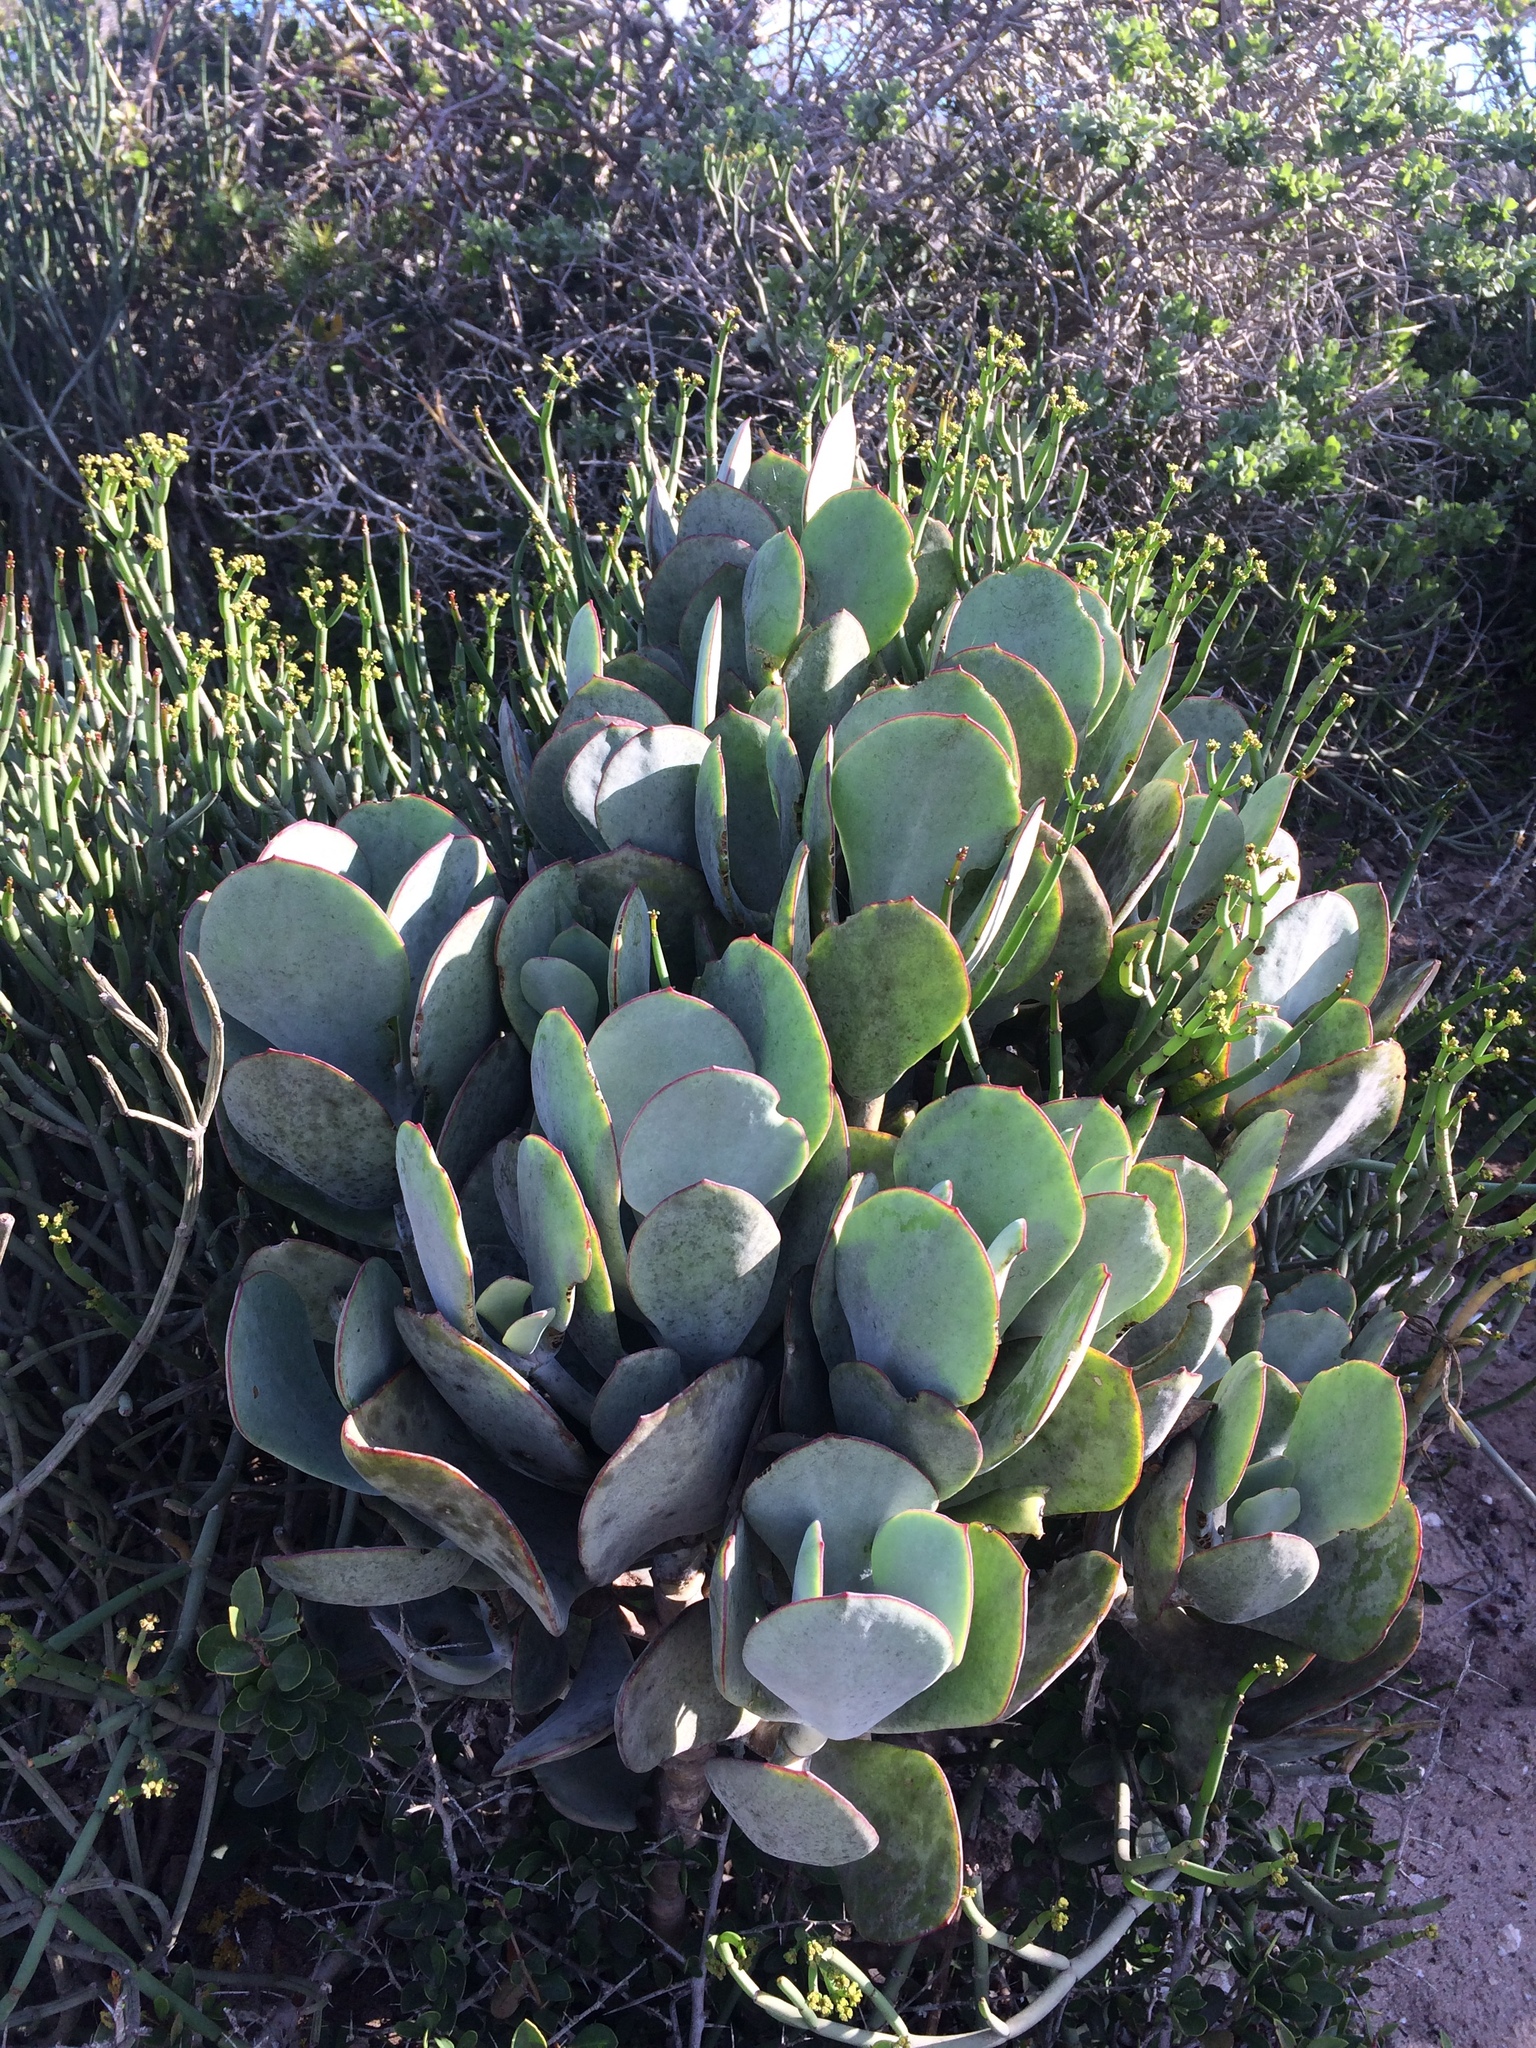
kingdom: Plantae
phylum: Tracheophyta
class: Magnoliopsida
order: Saxifragales
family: Crassulaceae
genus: Cotyledon
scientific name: Cotyledon orbiculata
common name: Pig's ear
